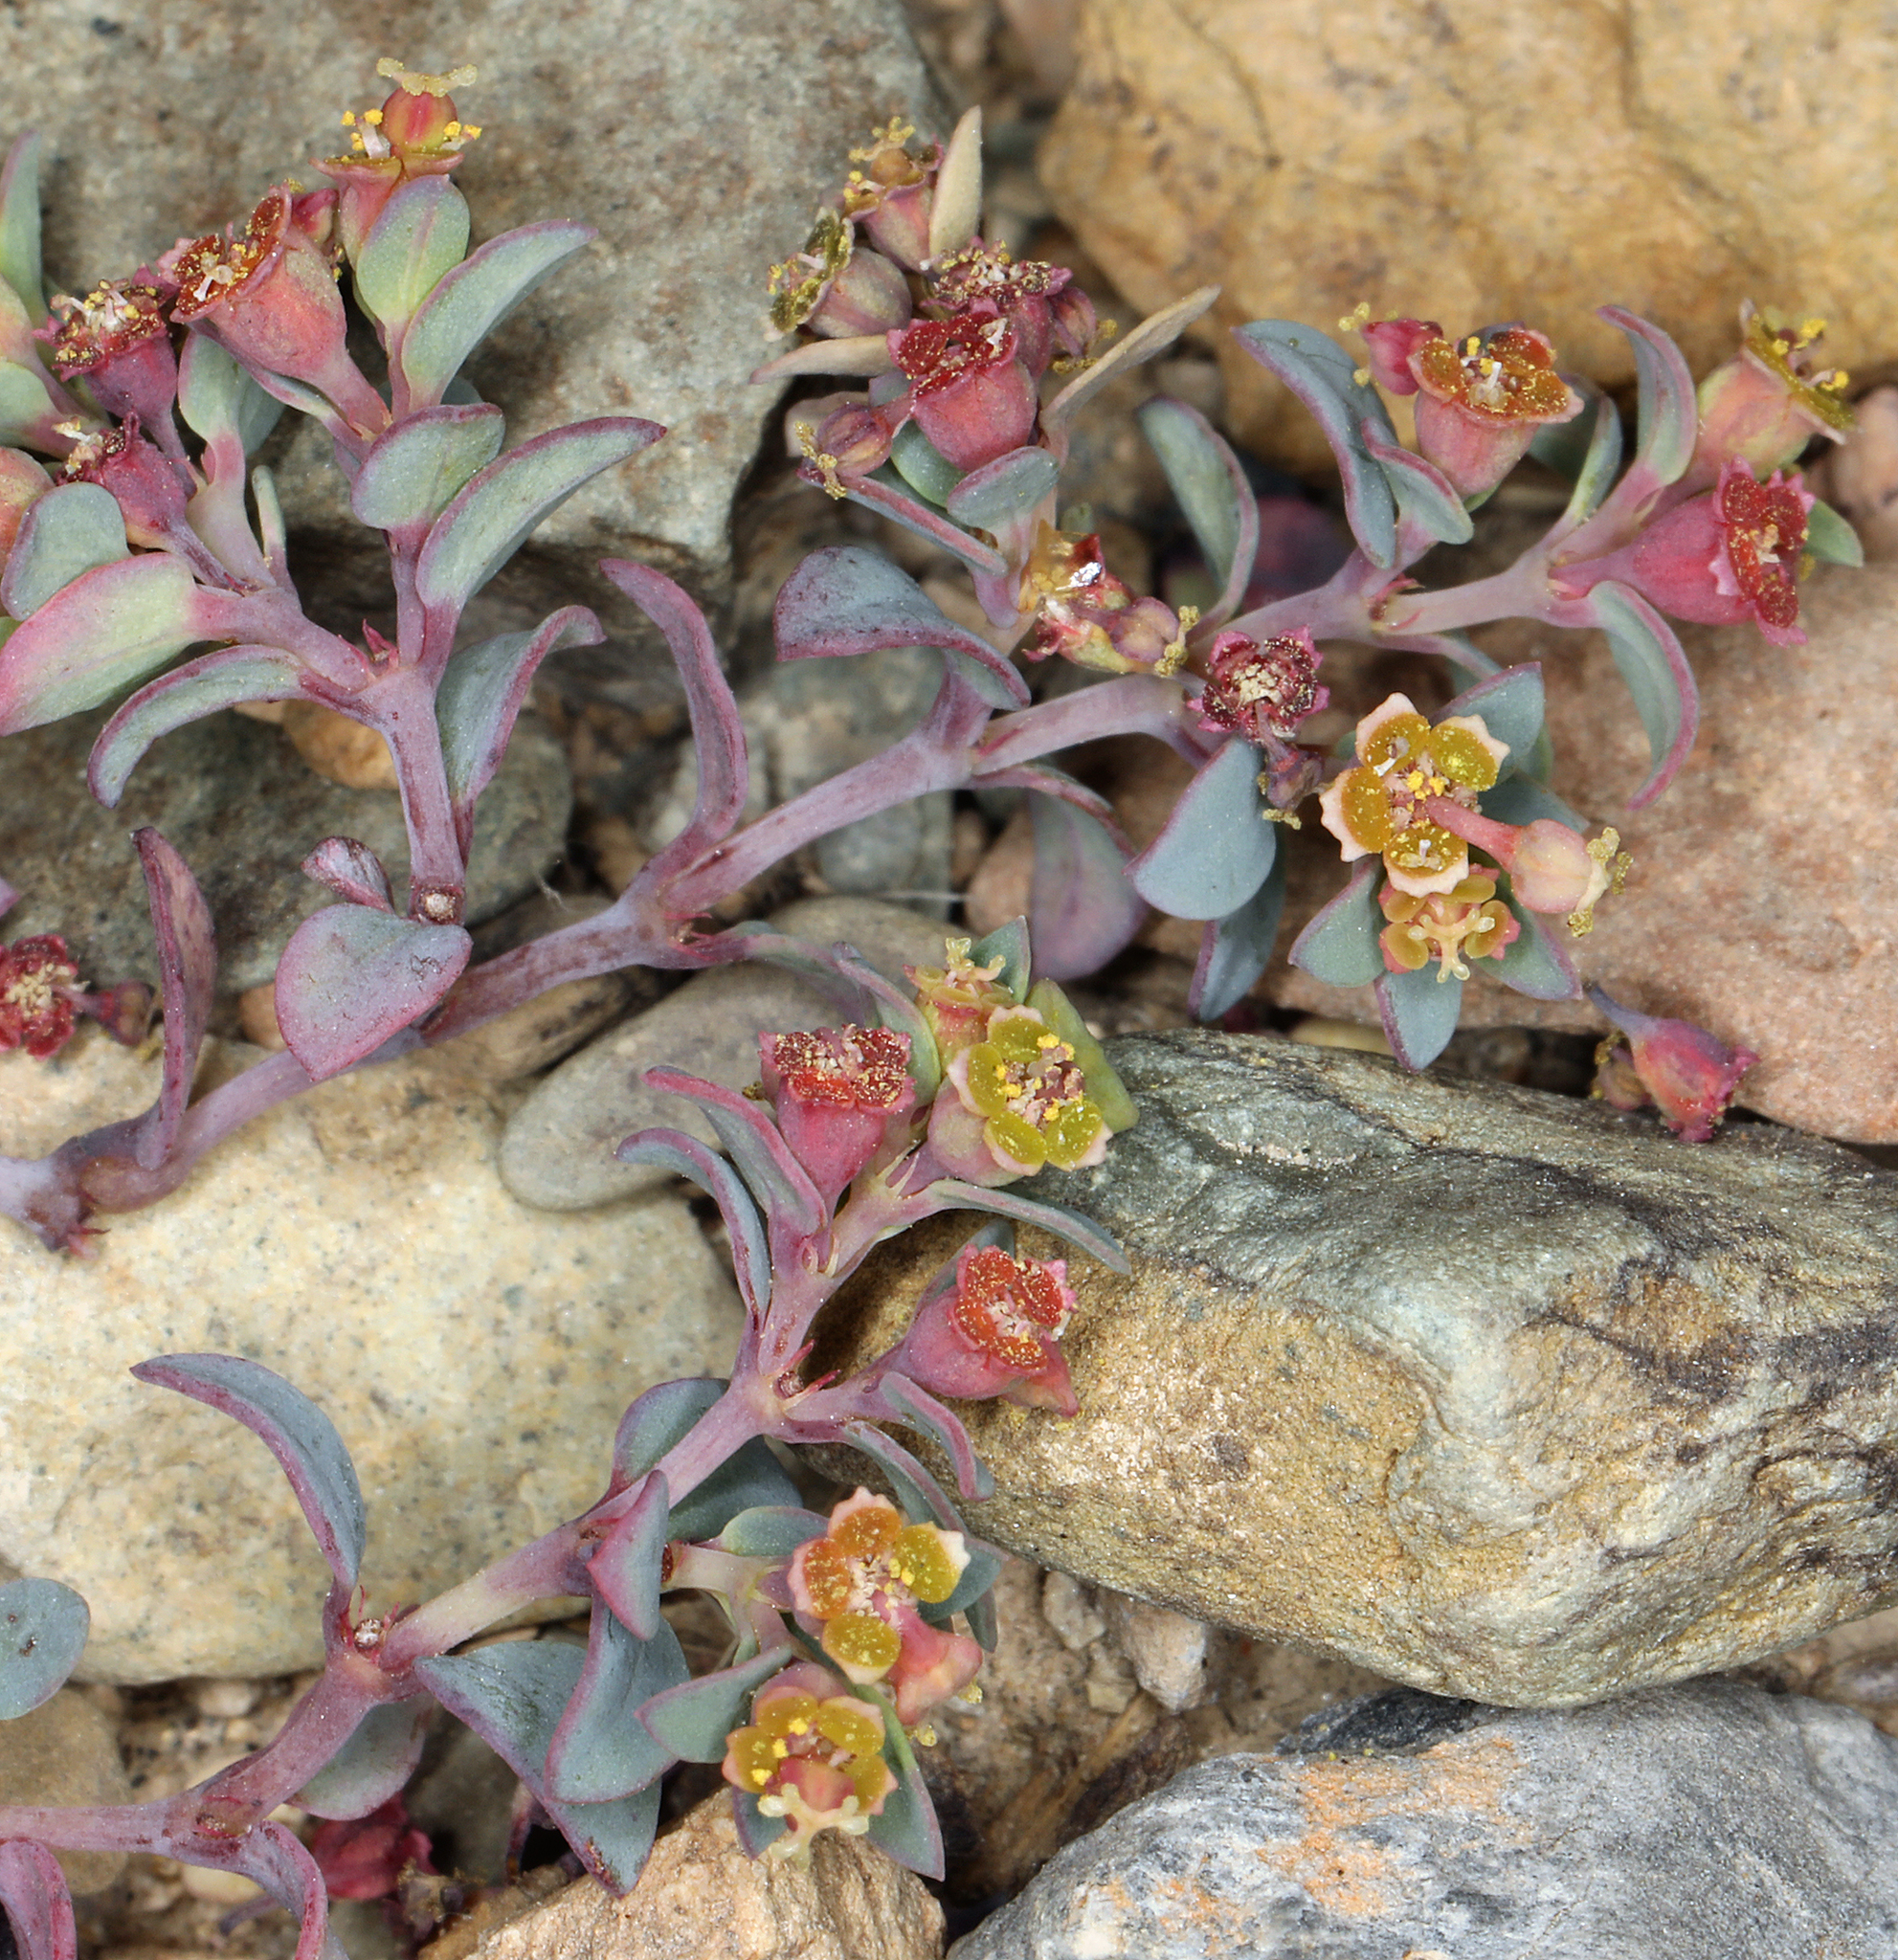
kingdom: Plantae
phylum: Tracheophyta
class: Magnoliopsida
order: Malpighiales
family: Euphorbiaceae
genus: Euphorbia
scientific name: Euphorbia fendleri
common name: Fendler's euphorbia
